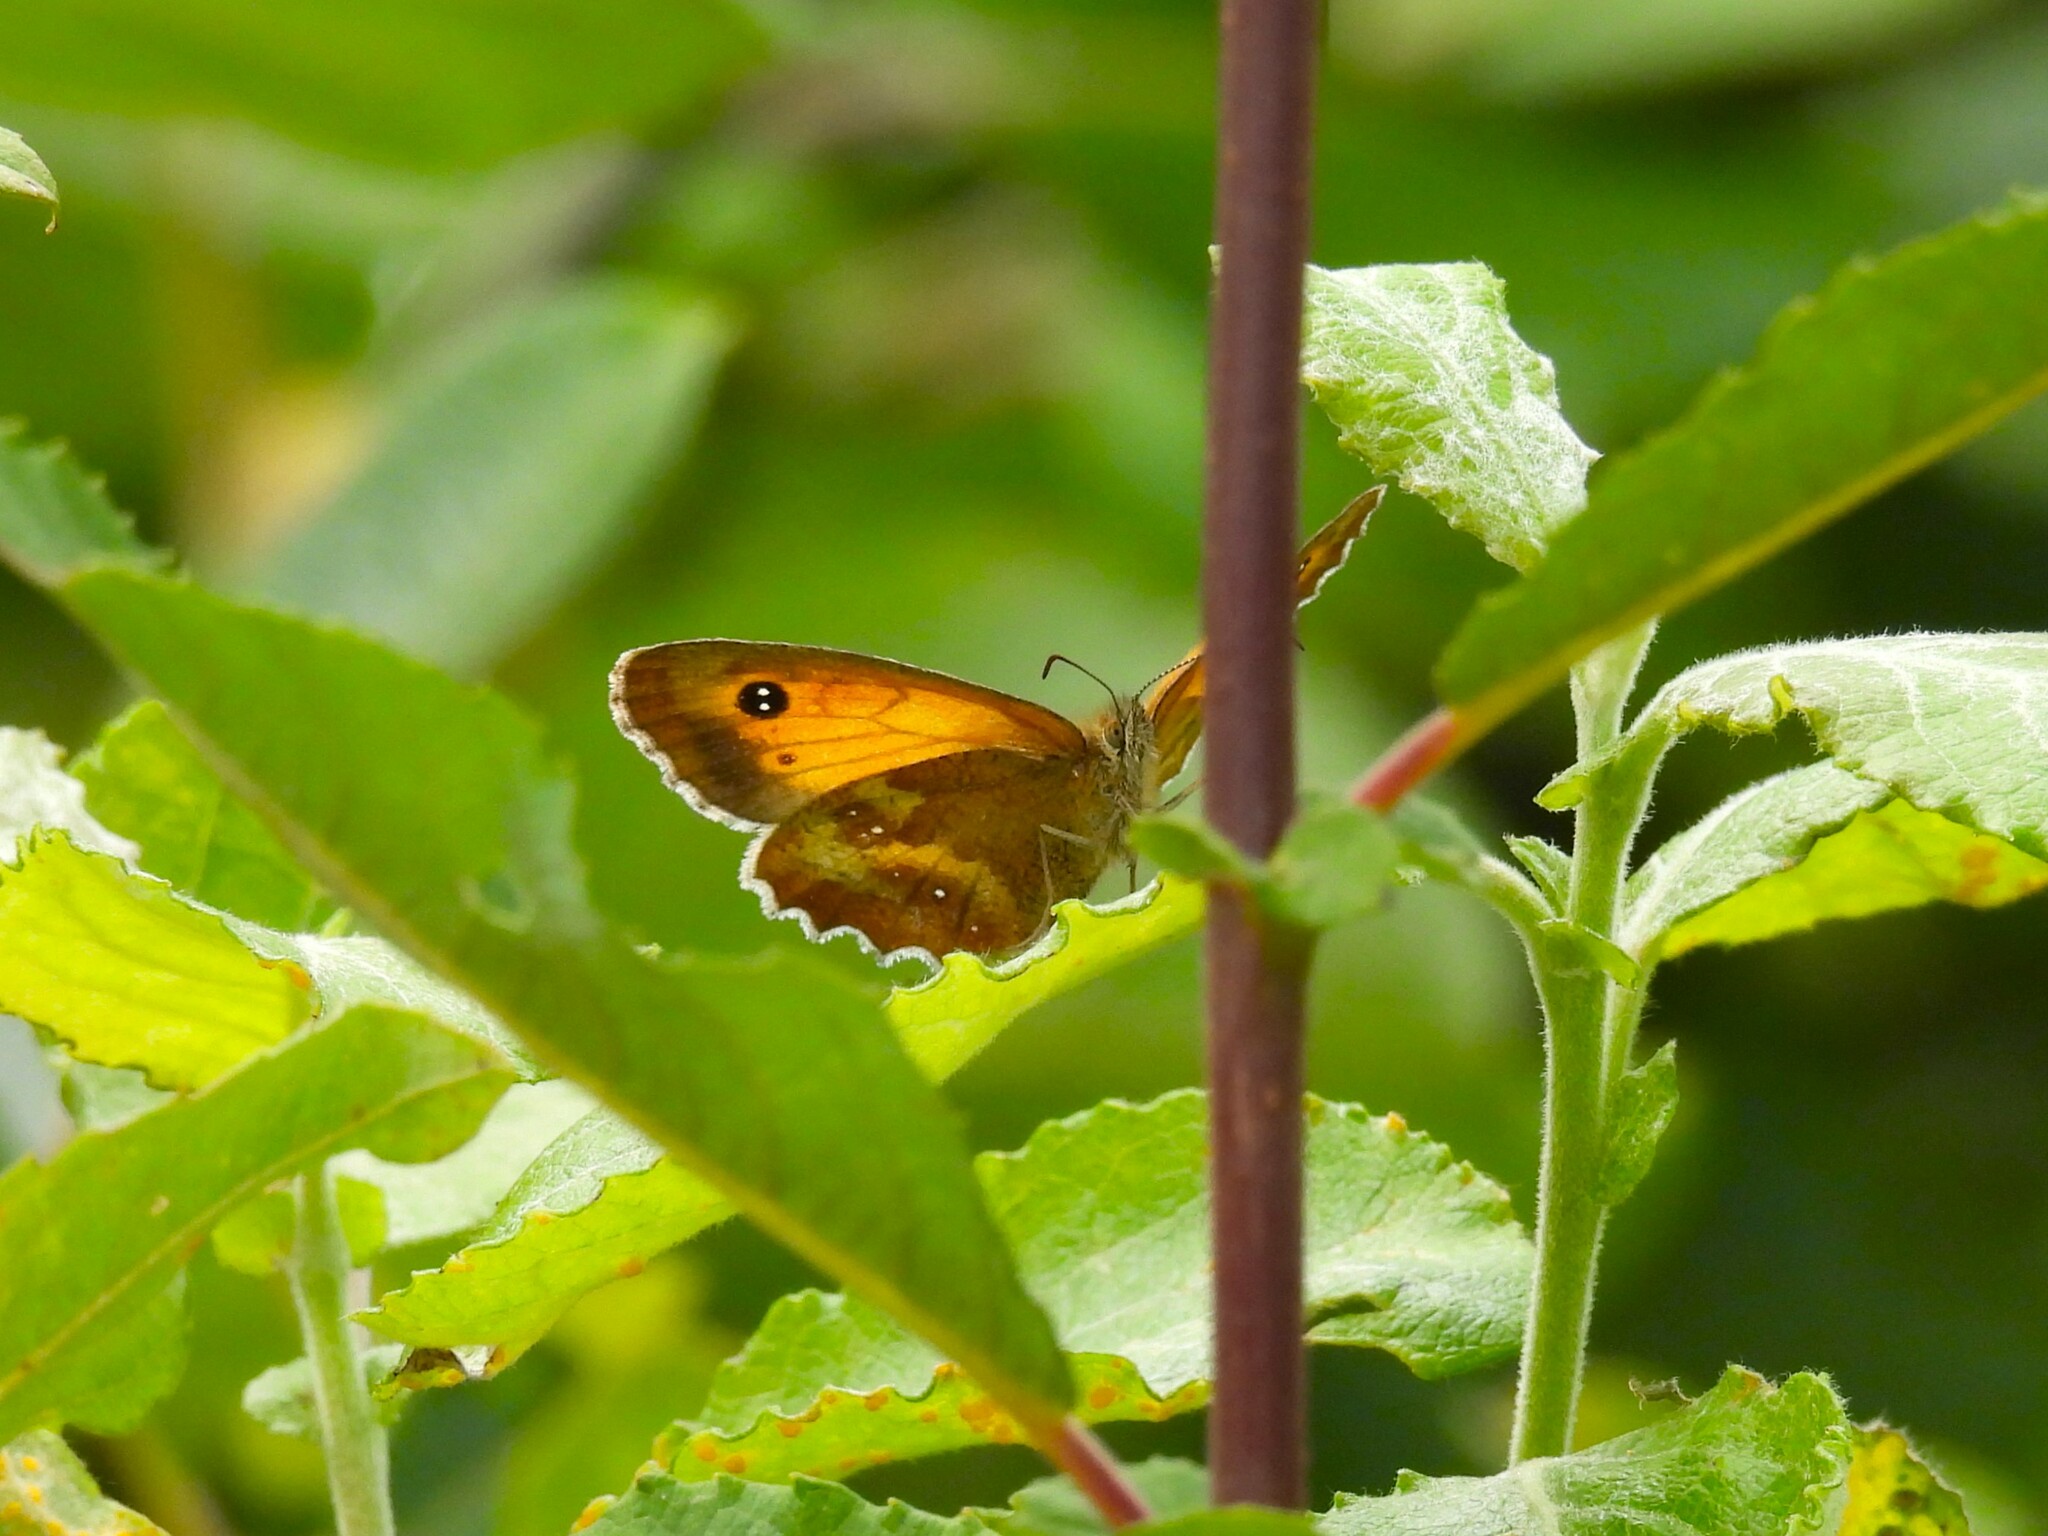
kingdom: Animalia
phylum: Arthropoda
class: Insecta
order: Lepidoptera
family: Nymphalidae
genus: Pyronia
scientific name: Pyronia tithonus
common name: Gatekeeper
